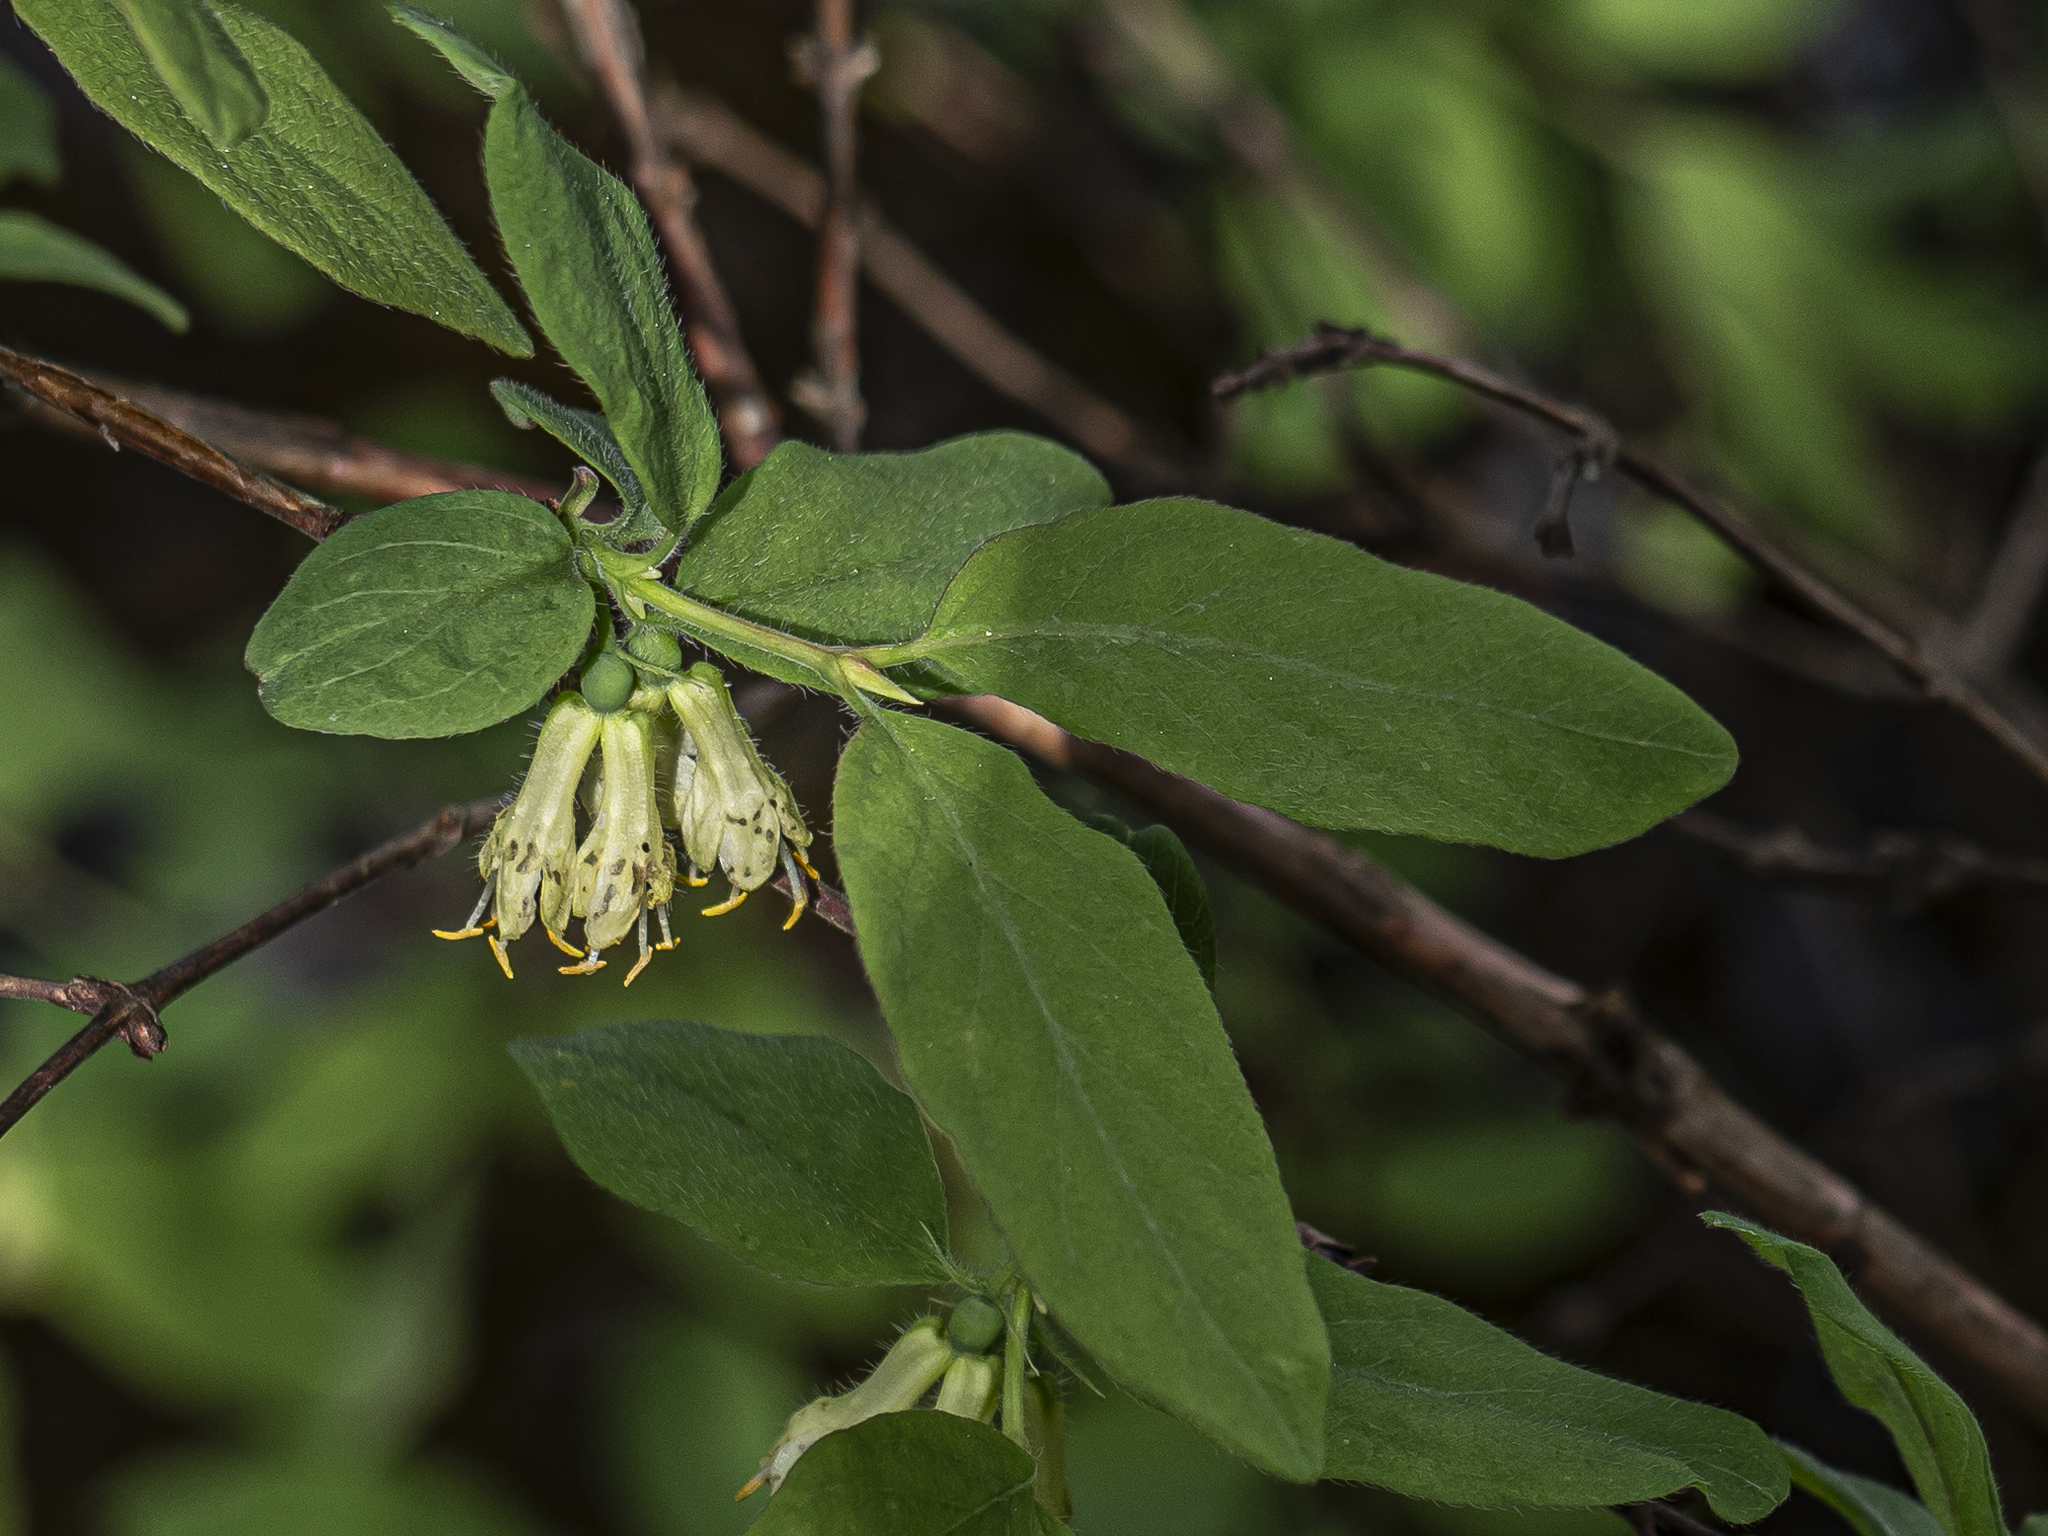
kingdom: Plantae
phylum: Tracheophyta
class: Magnoliopsida
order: Dipsacales
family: Caprifoliaceae
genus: Lonicera
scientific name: Lonicera caerulea
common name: Blue honeysuckle
